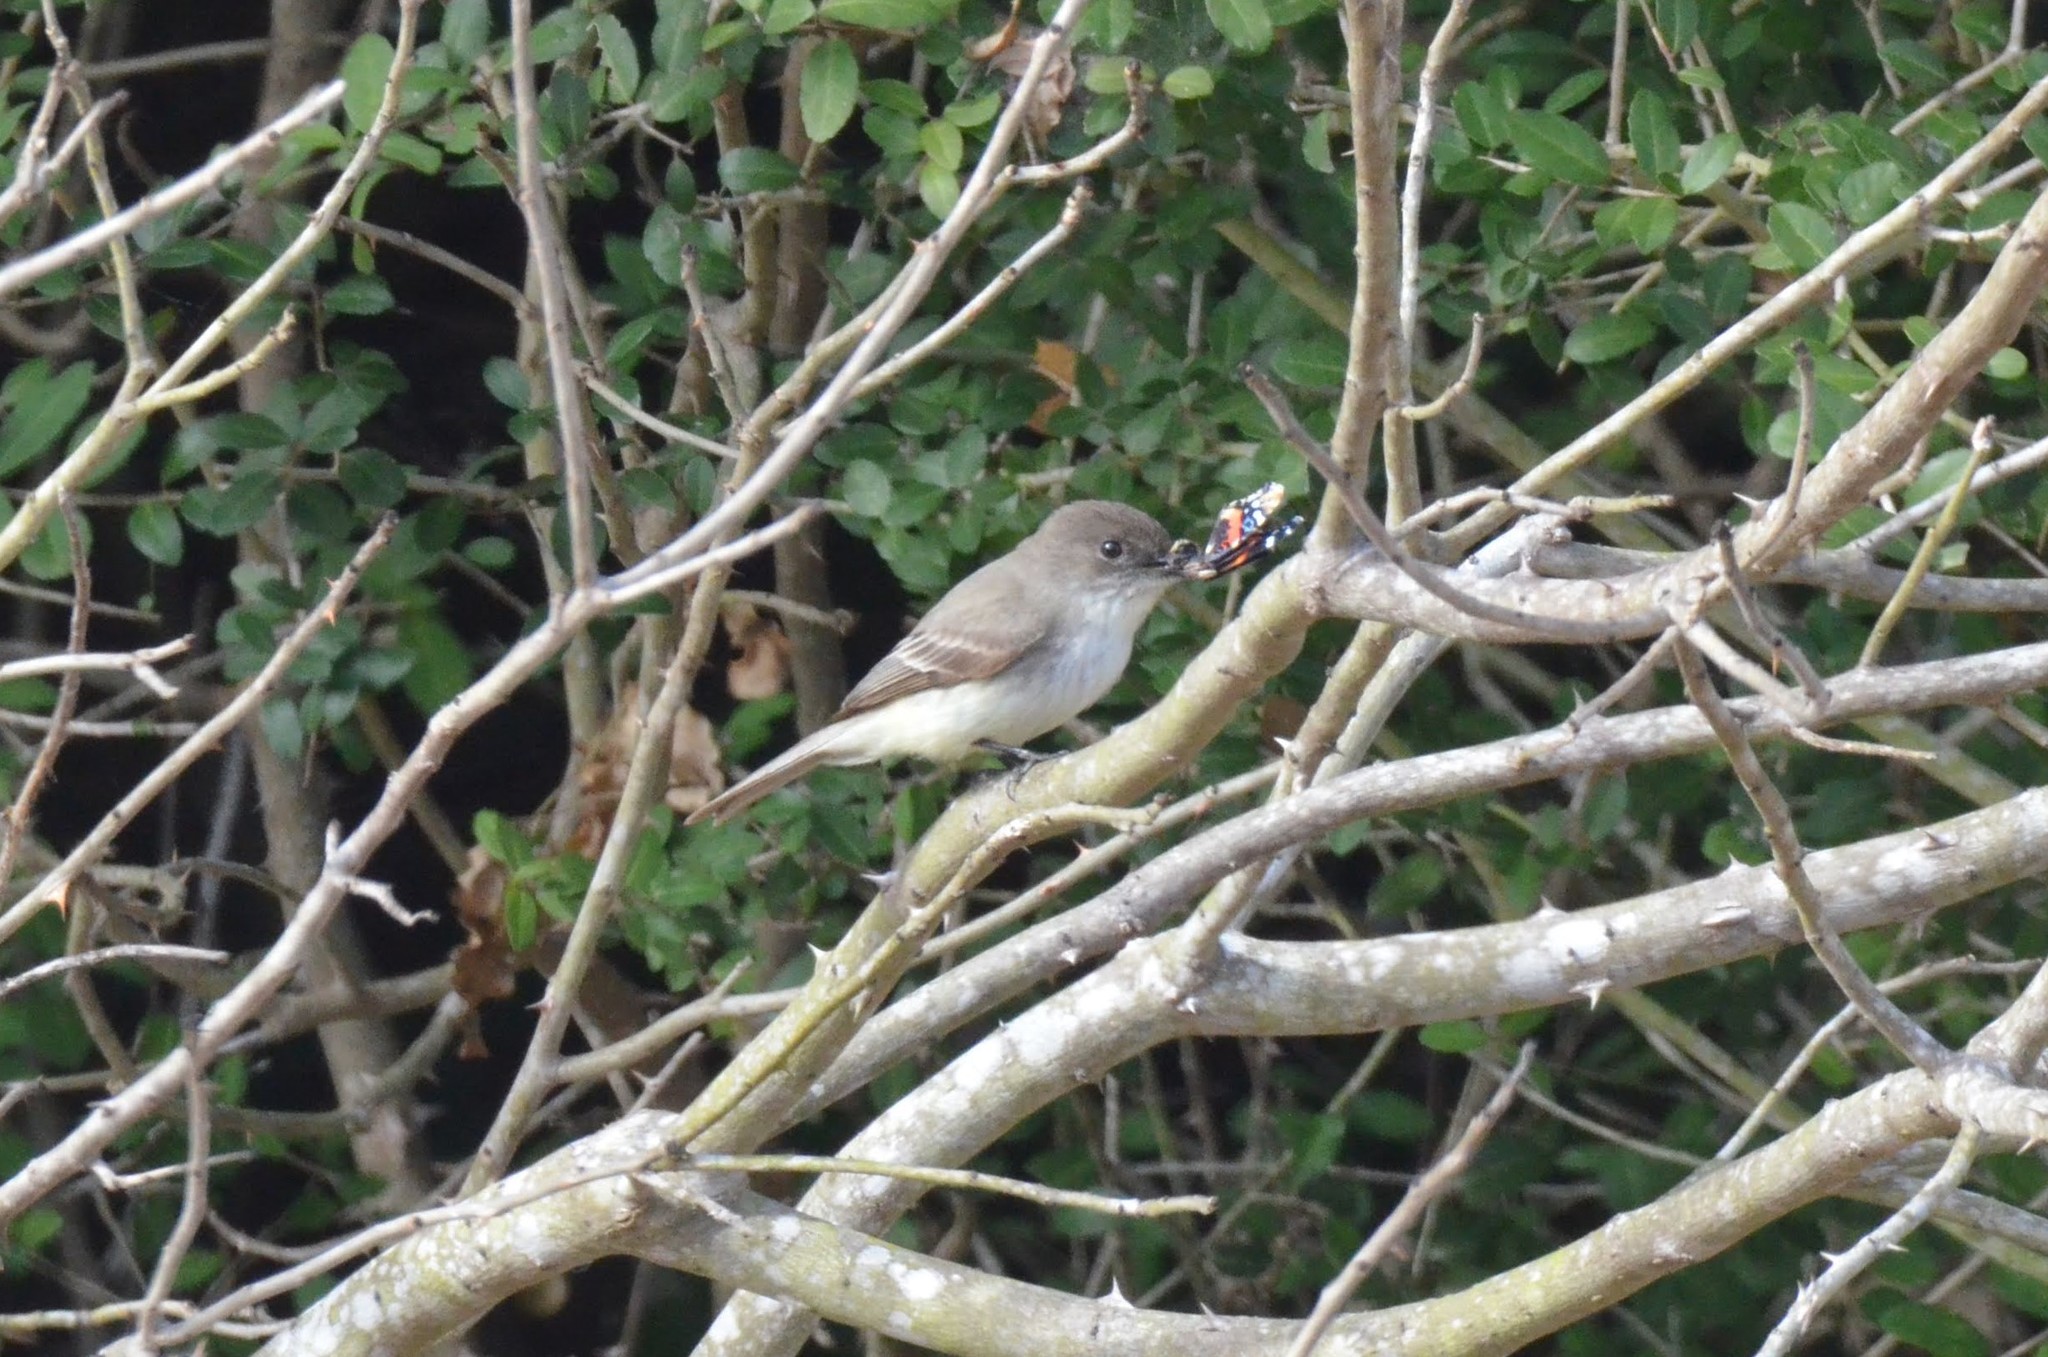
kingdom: Animalia
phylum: Chordata
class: Aves
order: Passeriformes
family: Tyrannidae
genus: Sayornis
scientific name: Sayornis phoebe
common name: Eastern phoebe
